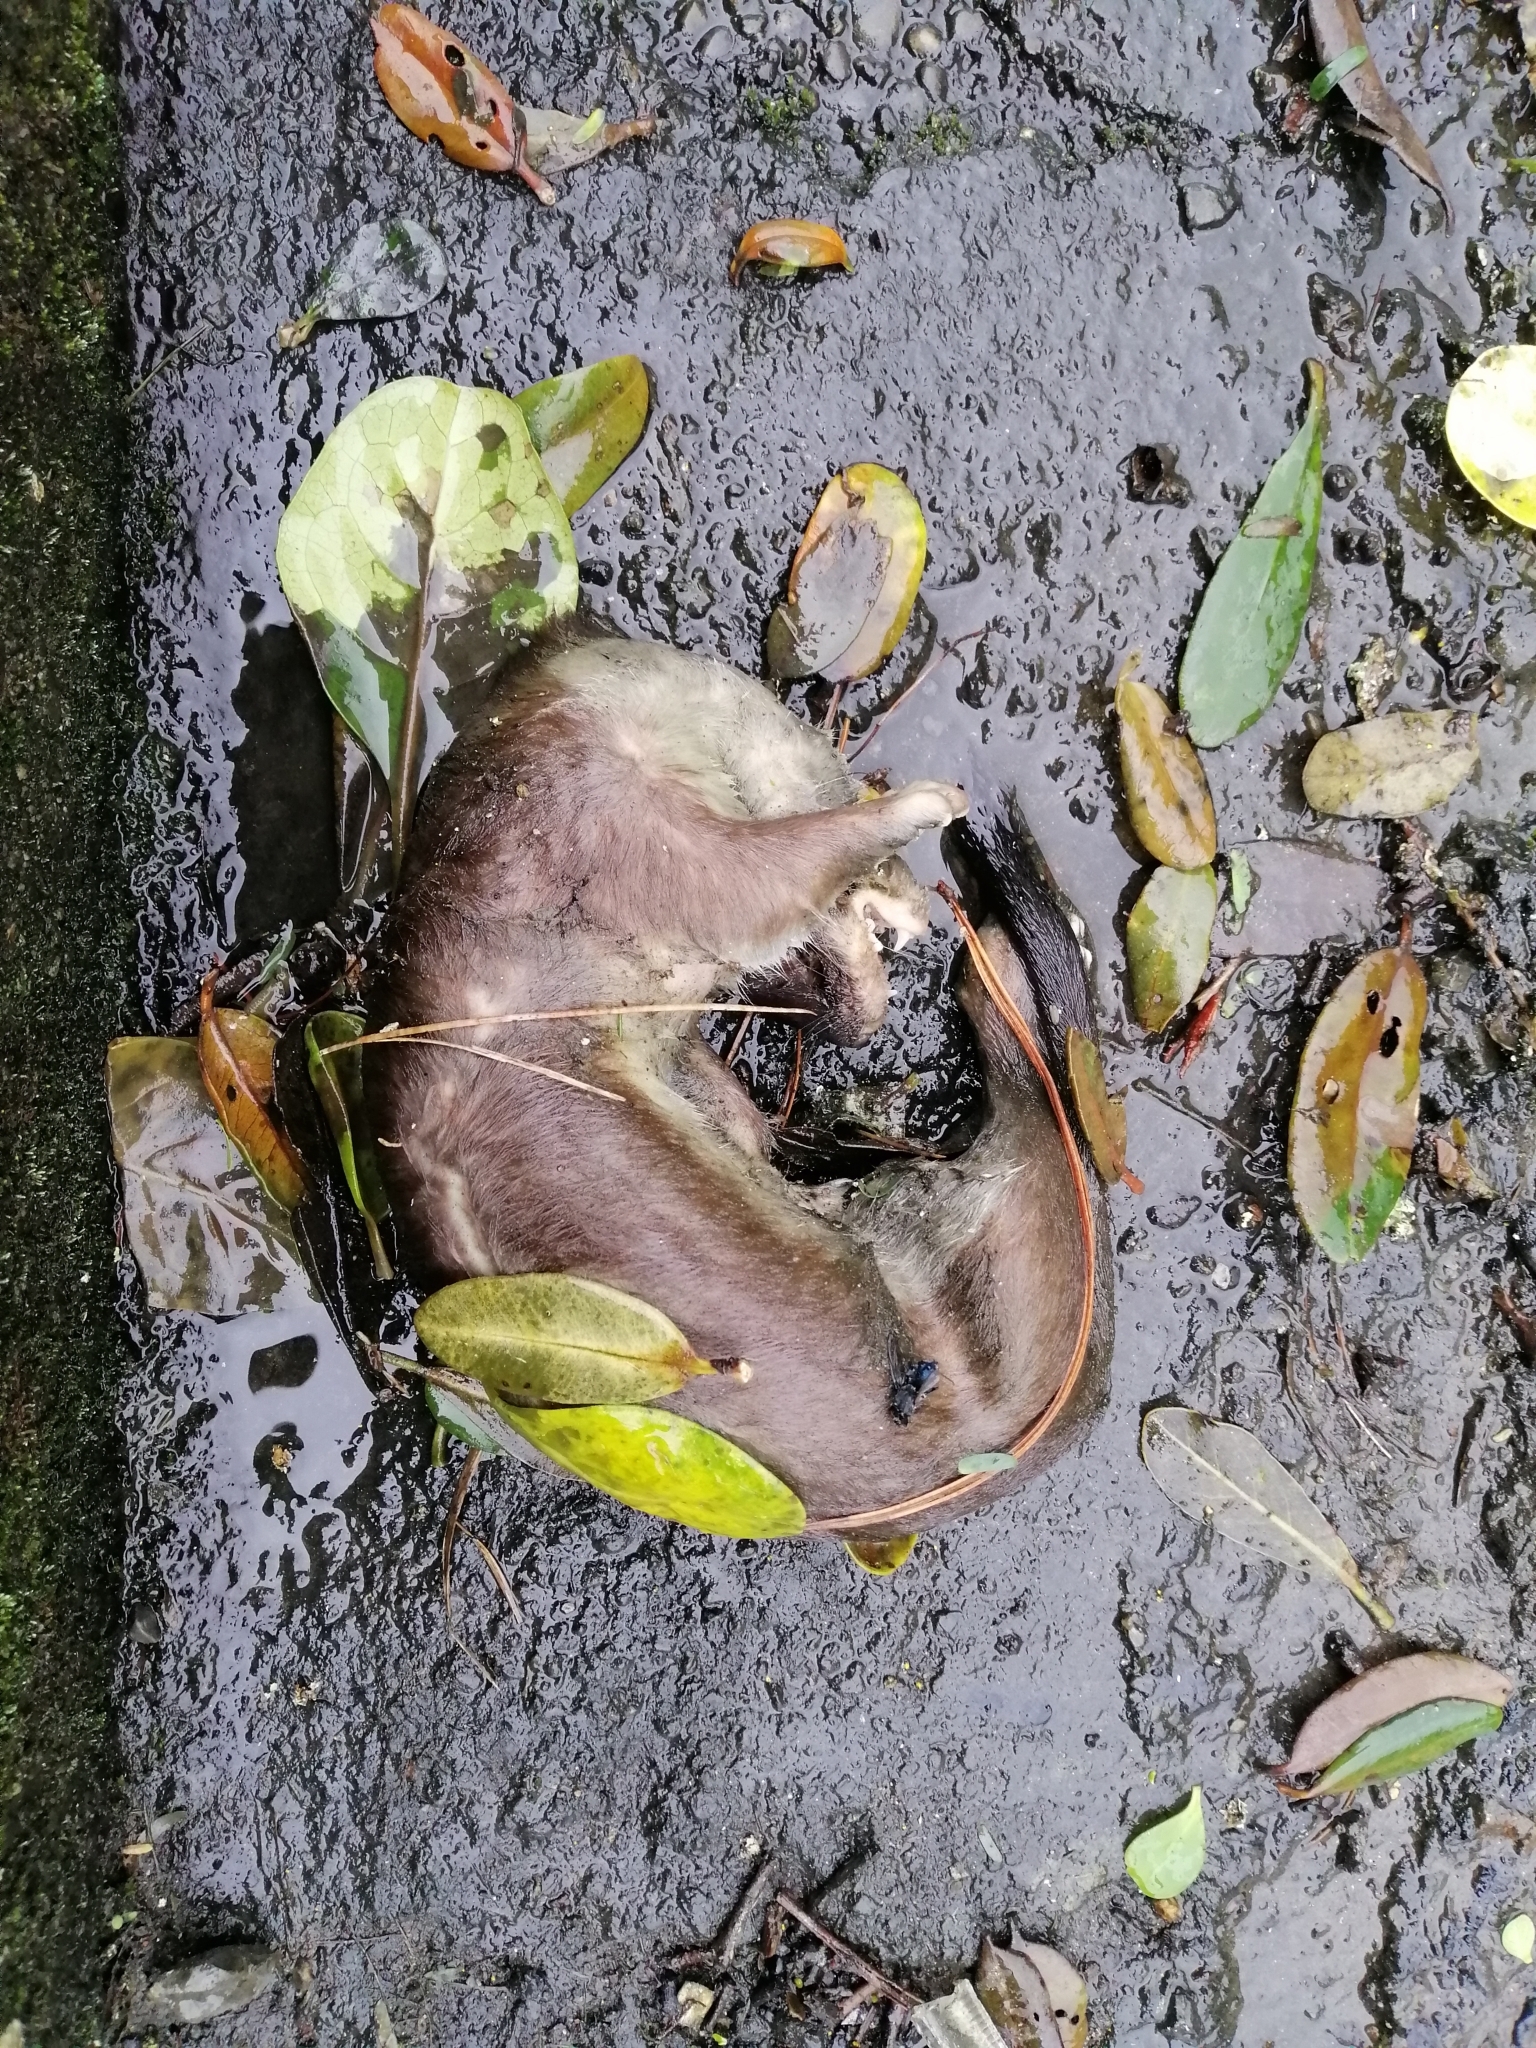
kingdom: Animalia
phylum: Chordata
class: Mammalia
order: Carnivora
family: Mustelidae
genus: Mustela
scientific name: Mustela erminea
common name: Stoat
